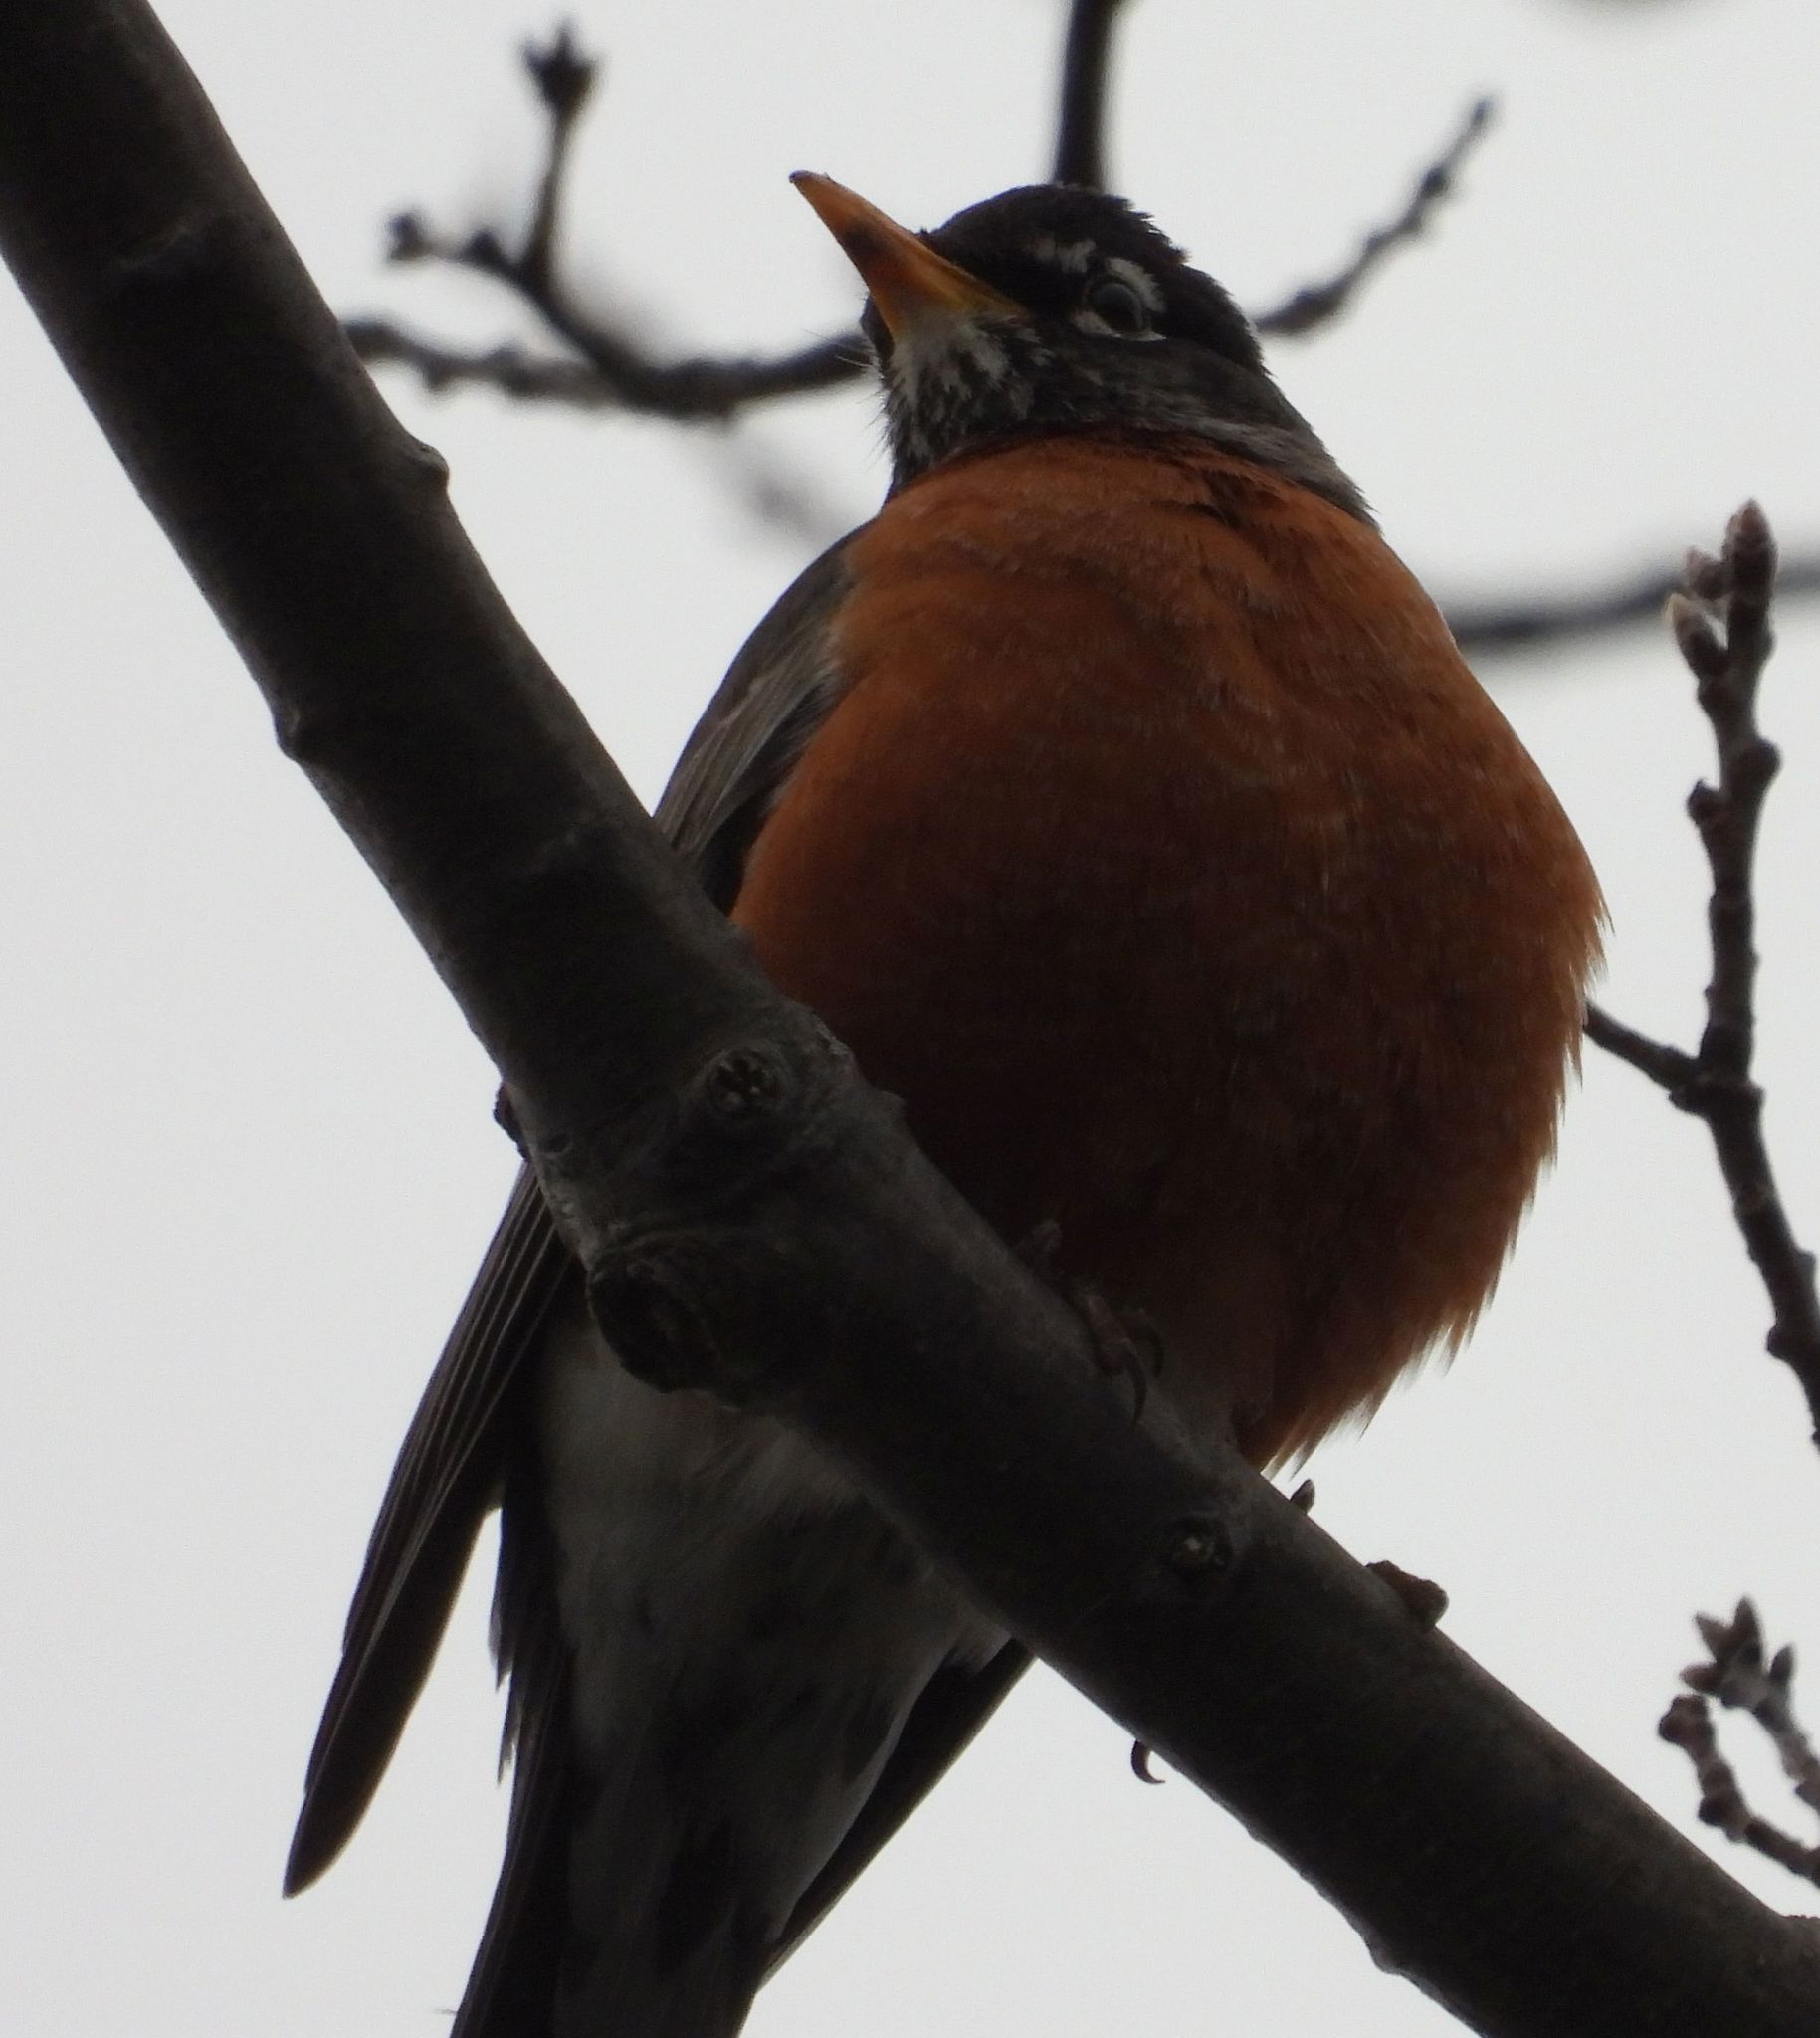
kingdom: Animalia
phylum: Chordata
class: Aves
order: Passeriformes
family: Turdidae
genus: Turdus
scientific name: Turdus migratorius
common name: American robin
